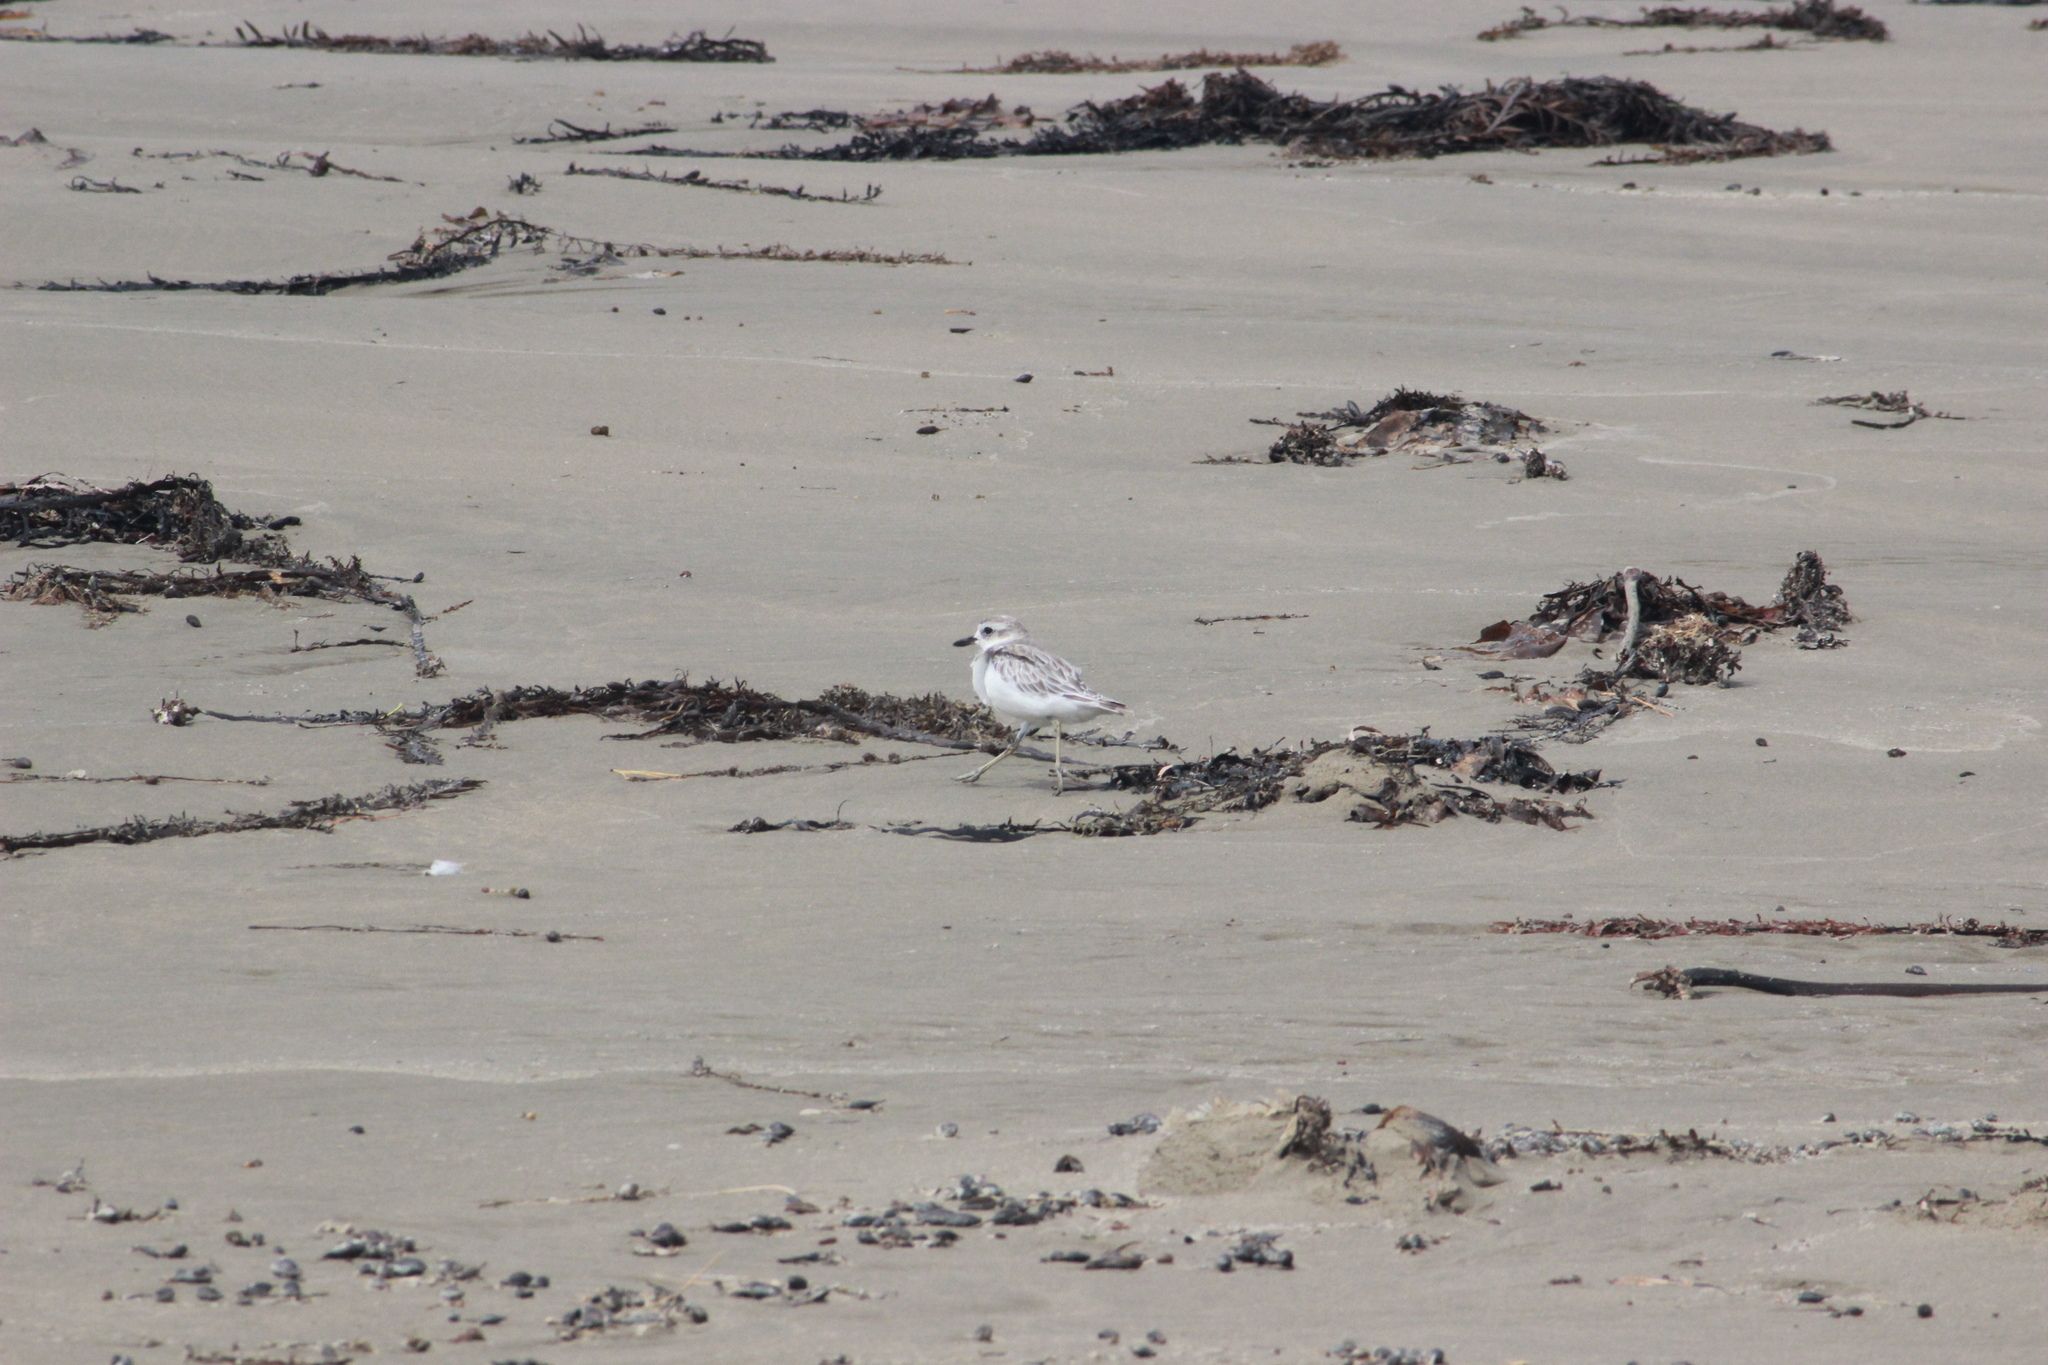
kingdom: Animalia
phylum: Chordata
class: Aves
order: Charadriiformes
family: Charadriidae
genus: Anarhynchus
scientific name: Anarhynchus
